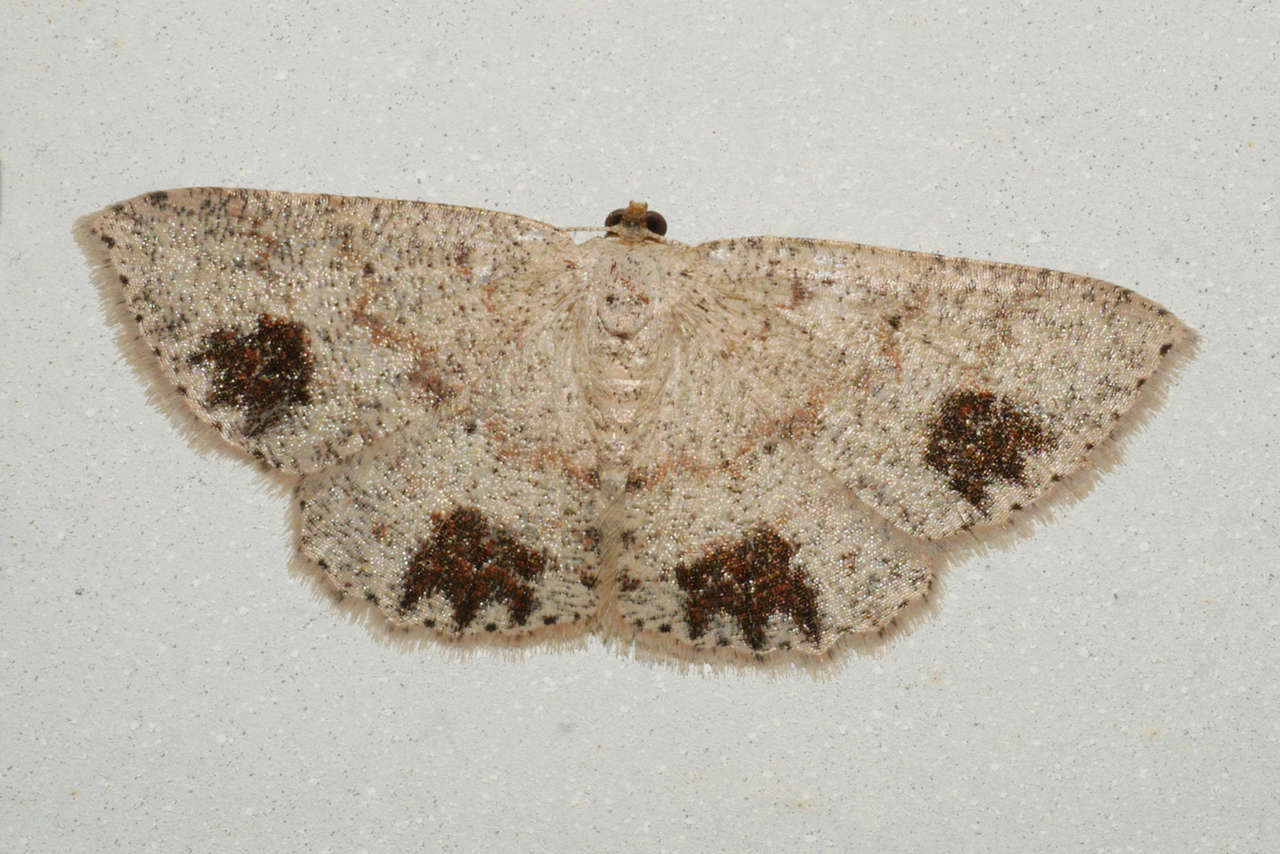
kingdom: Animalia
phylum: Arthropoda
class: Insecta
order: Lepidoptera
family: Geometridae
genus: Casbia
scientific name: Casbia celidosema
